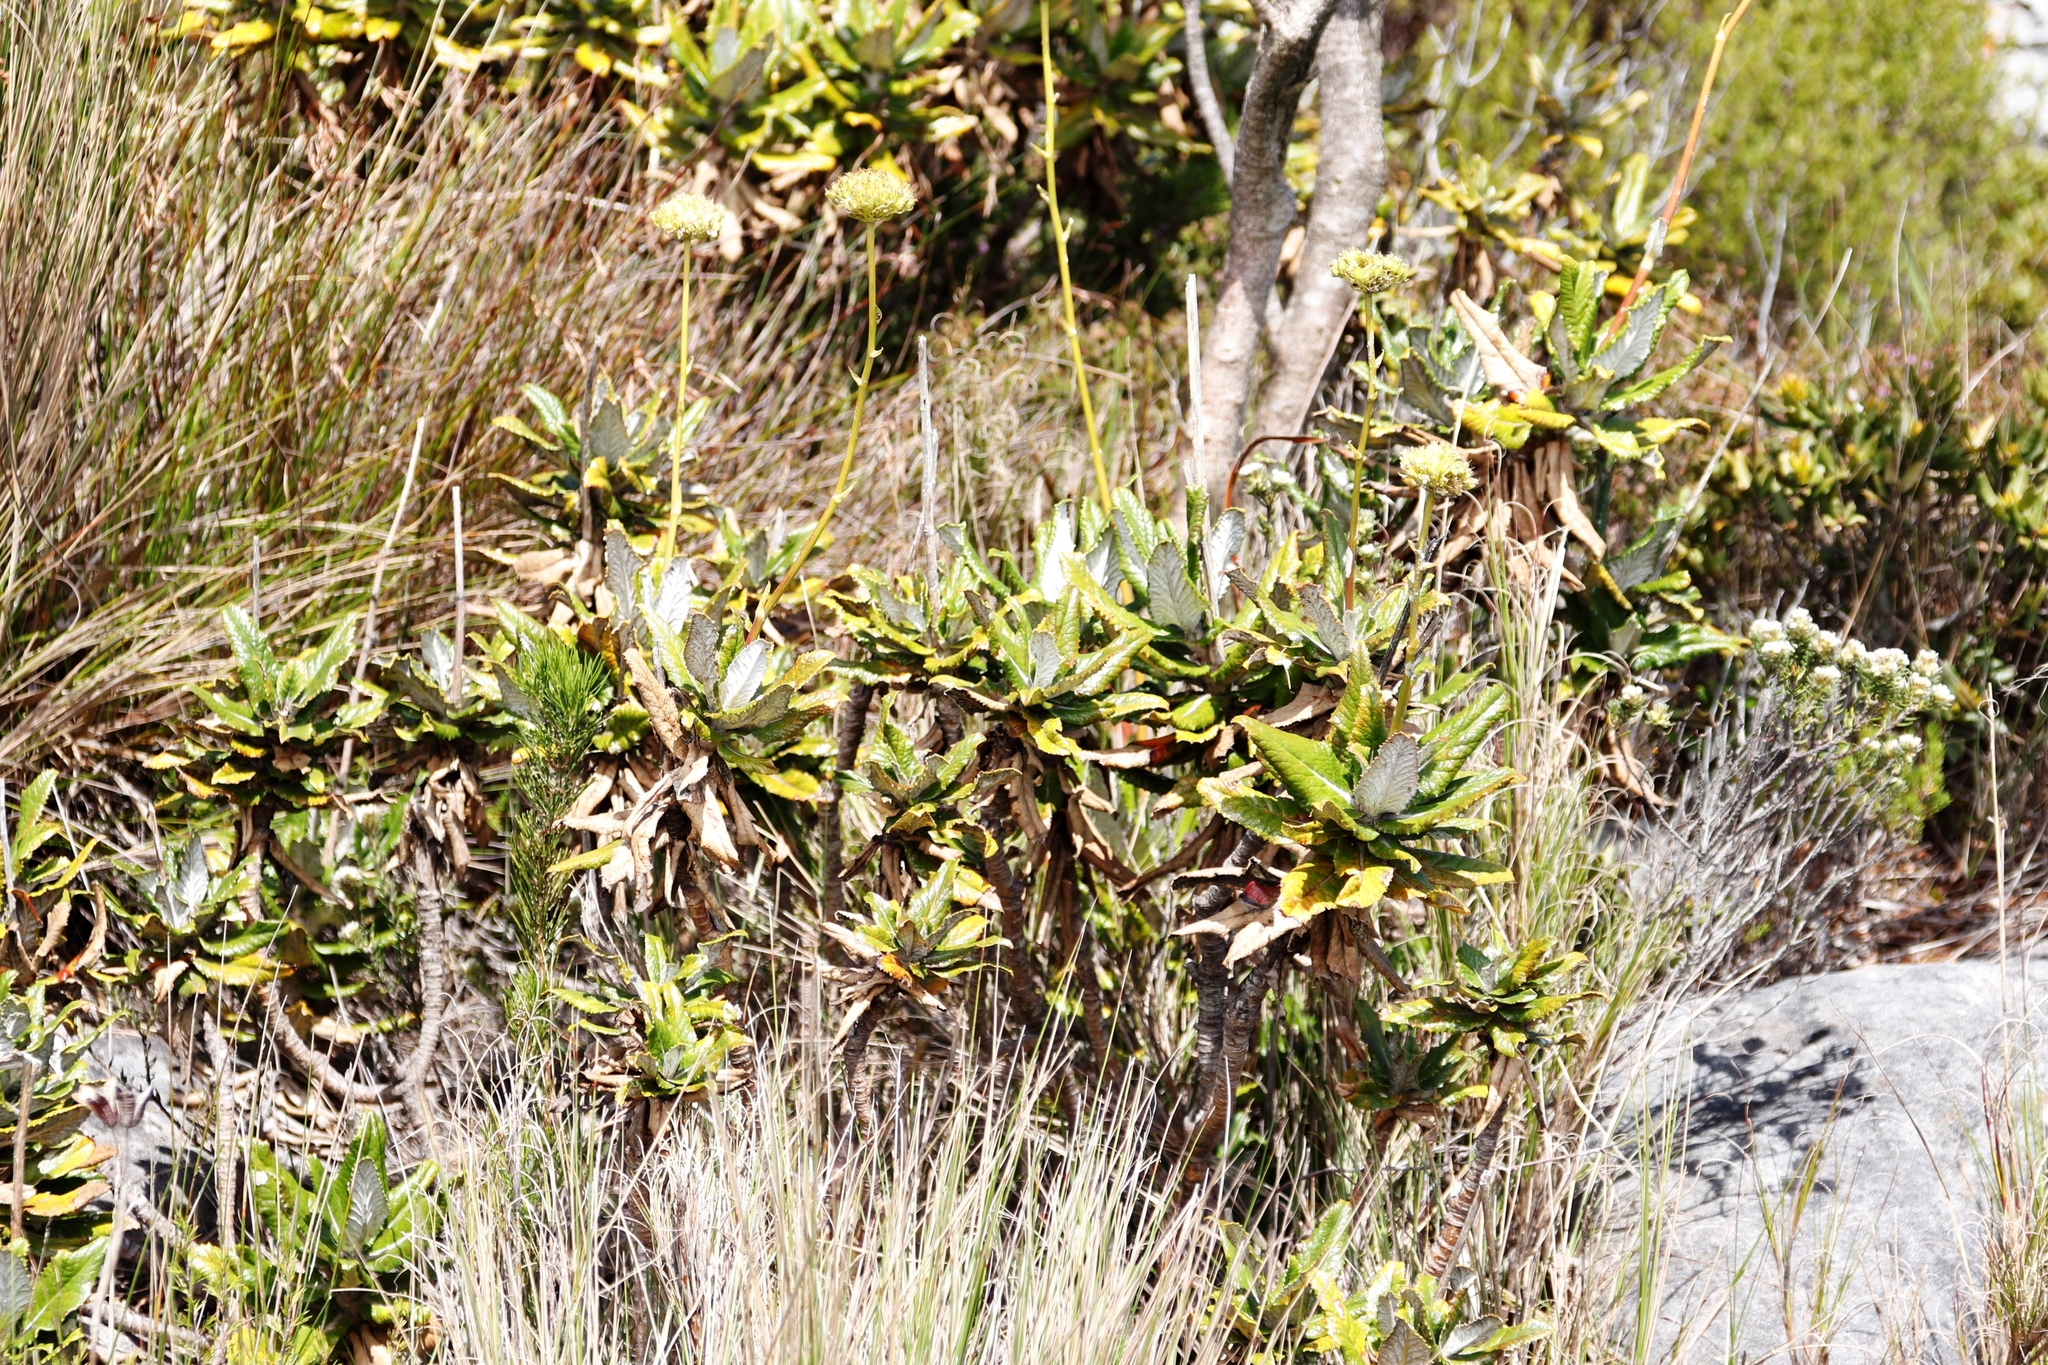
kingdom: Plantae
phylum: Tracheophyta
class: Magnoliopsida
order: Apiales
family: Apiaceae
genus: Hermas
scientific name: Hermas villosa
